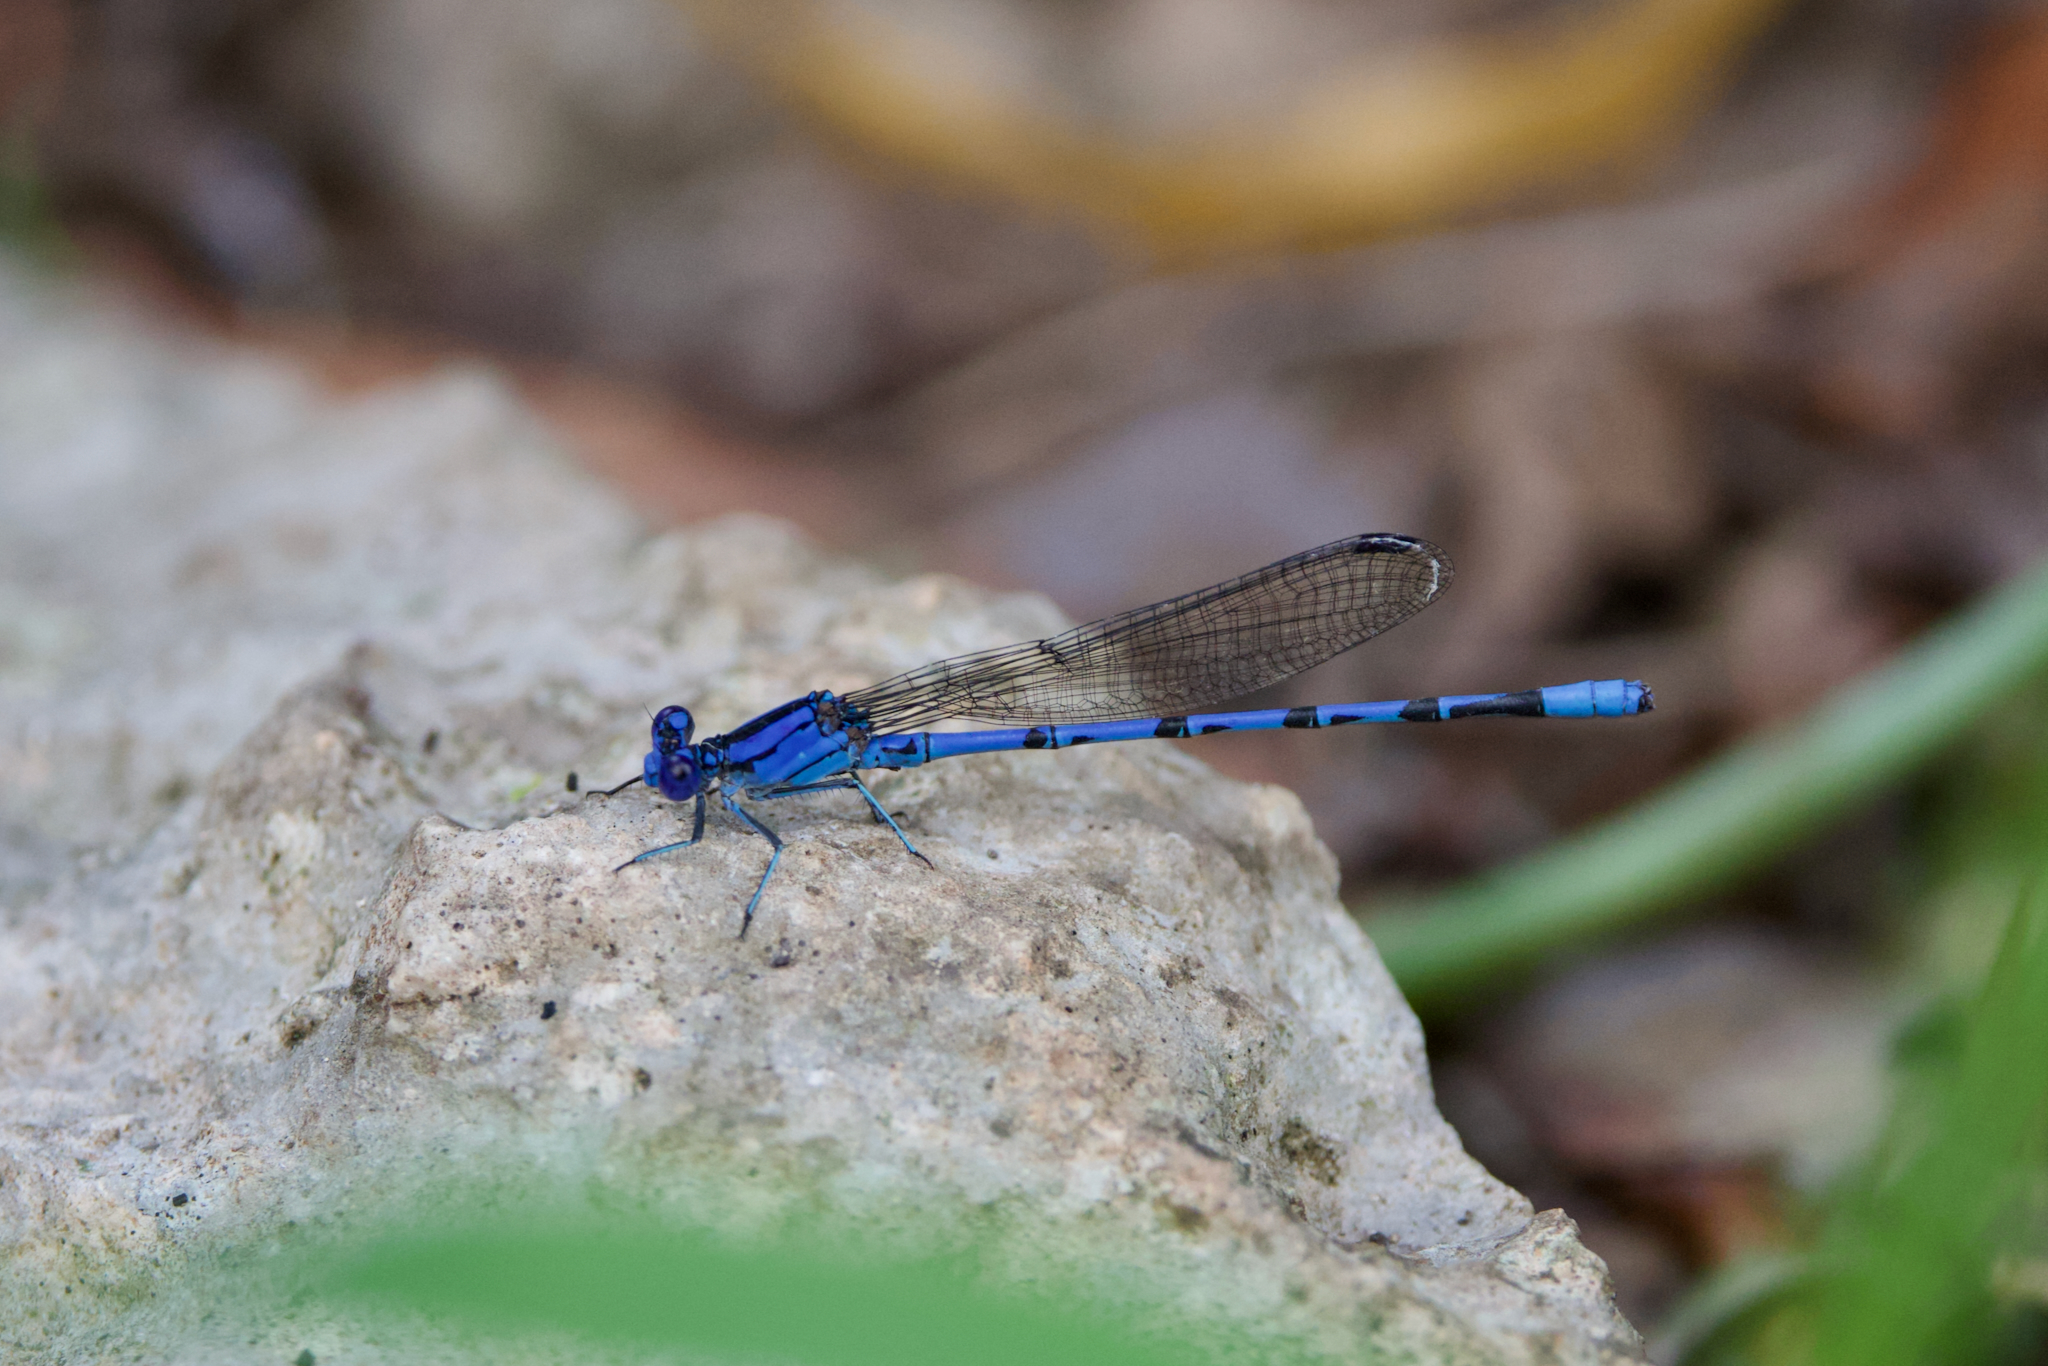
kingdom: Animalia
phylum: Arthropoda
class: Insecta
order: Odonata
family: Coenagrionidae
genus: Argia
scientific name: Argia funebris
